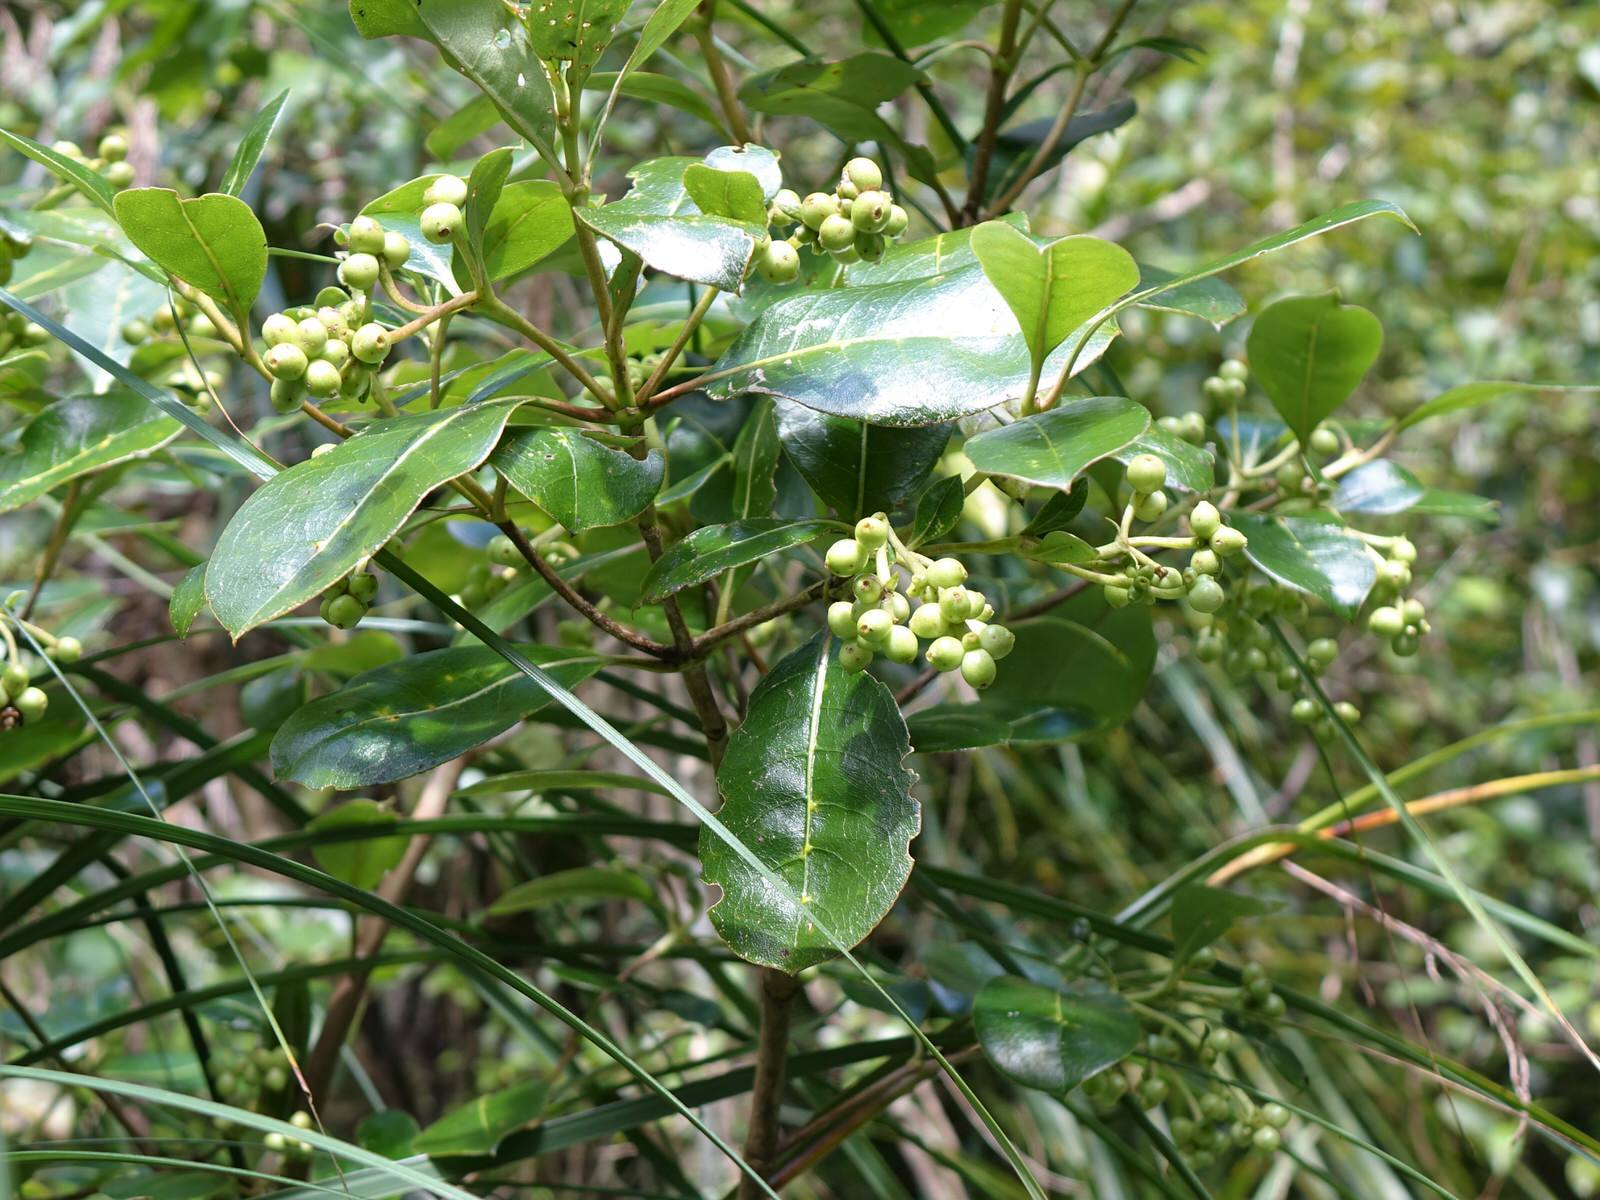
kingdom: Plantae
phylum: Tracheophyta
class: Magnoliopsida
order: Gentianales
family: Rubiaceae
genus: Coprosma
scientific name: Coprosma lucida
